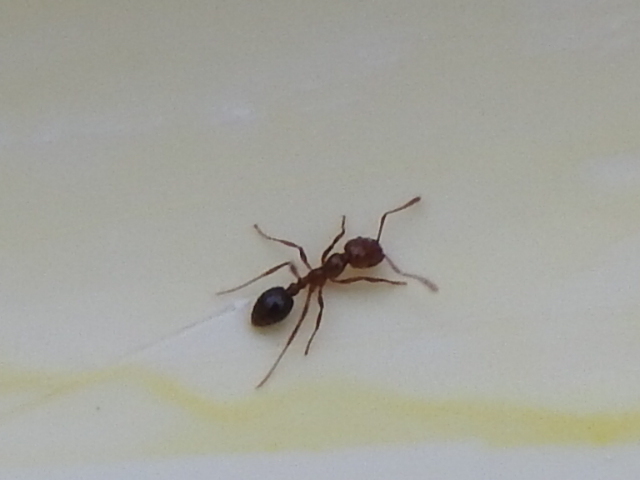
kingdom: Animalia
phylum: Arthropoda
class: Insecta
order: Hymenoptera
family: Formicidae
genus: Solenopsis
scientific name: Solenopsis invicta
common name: Red imported fire ant
